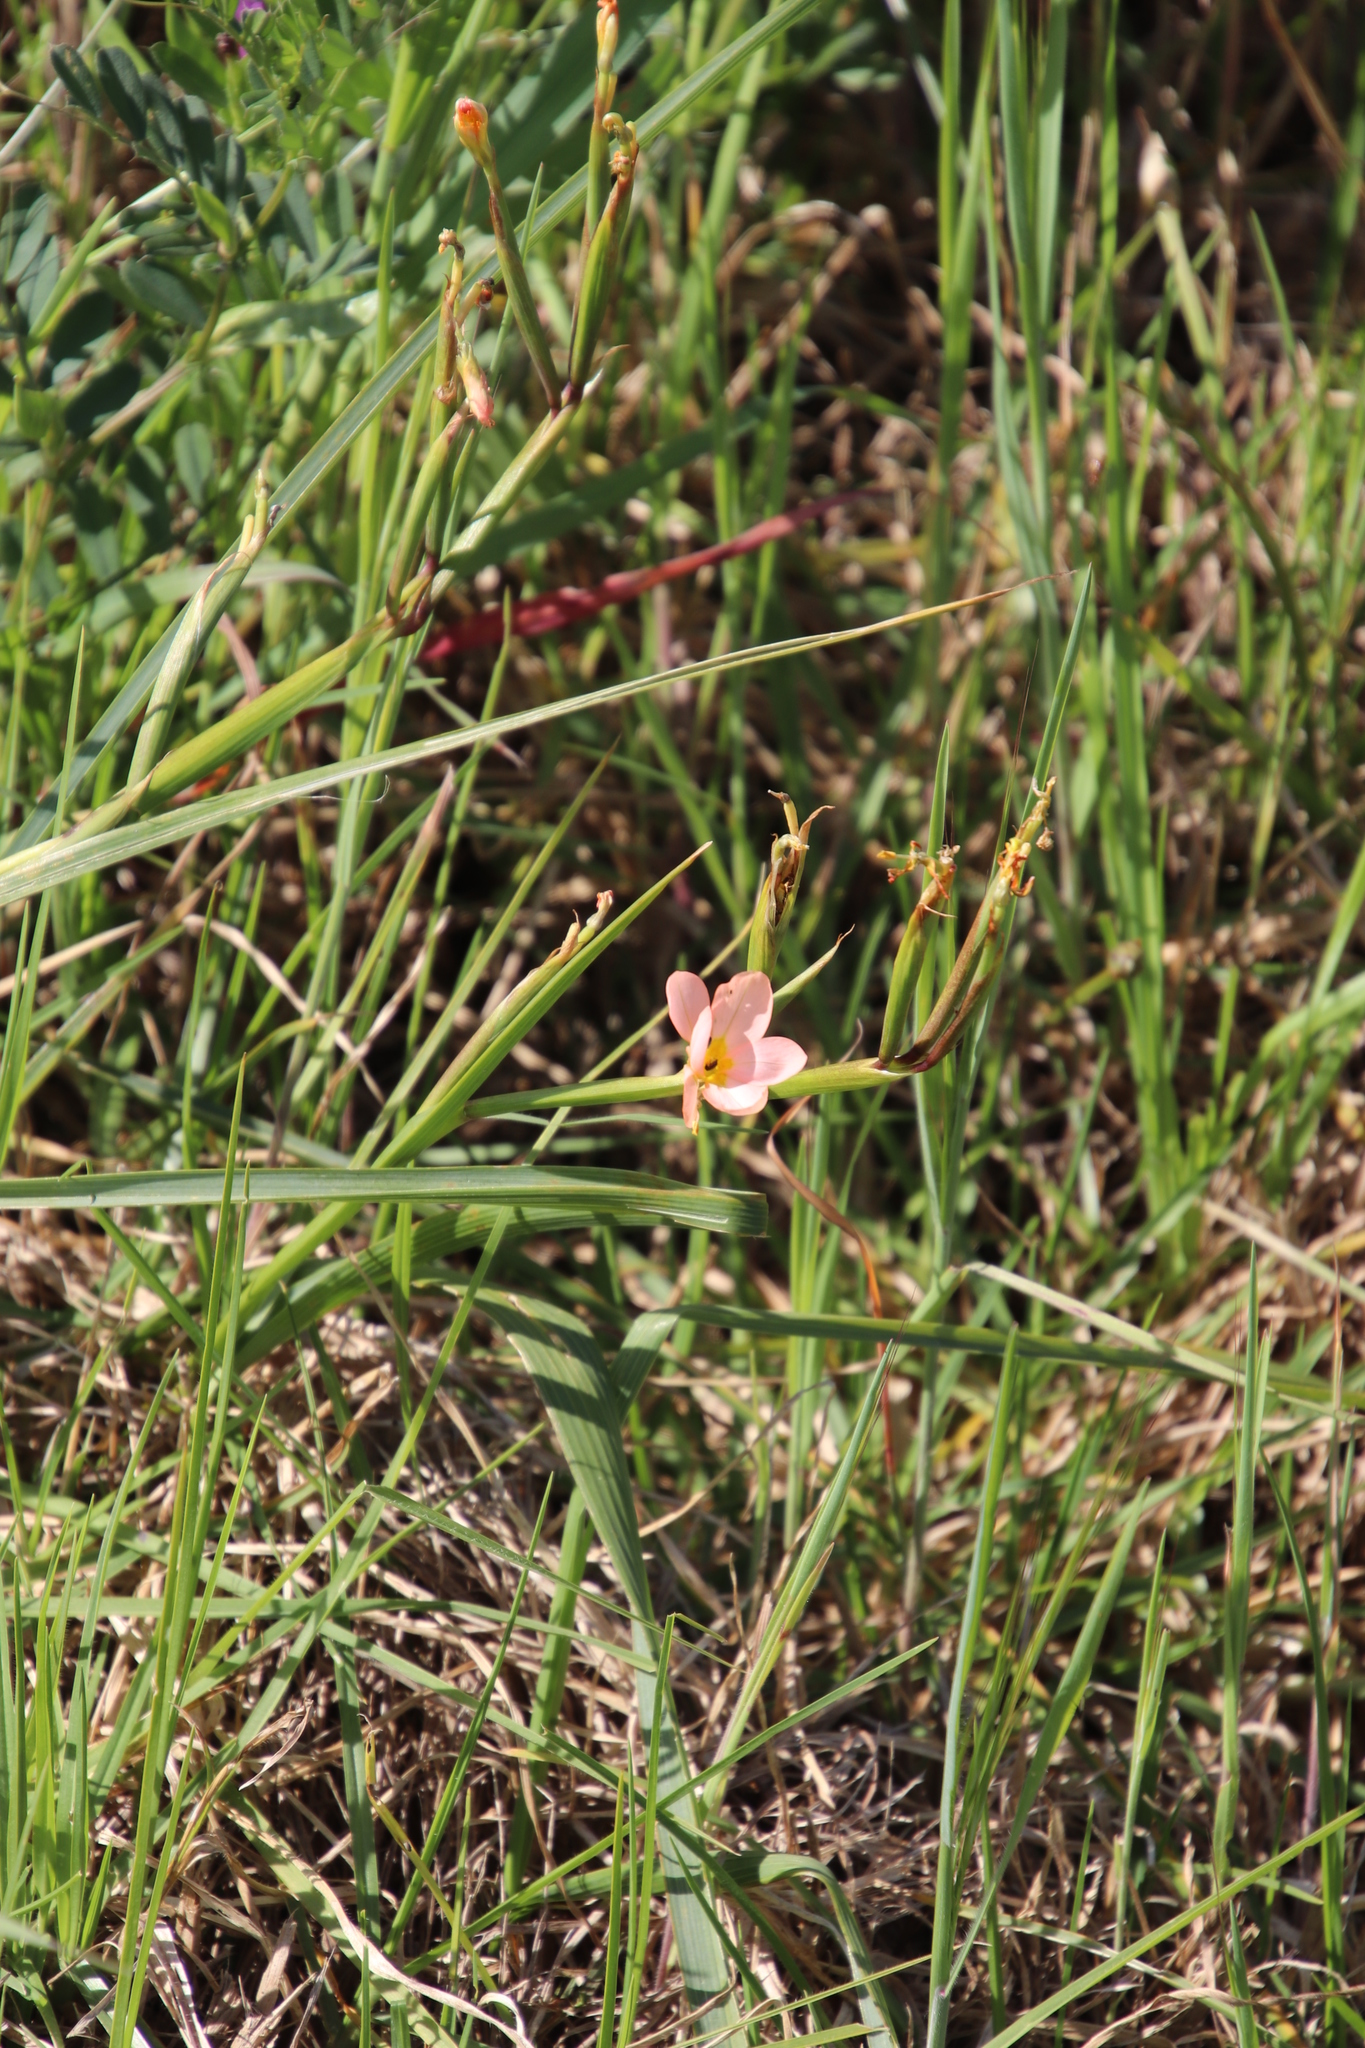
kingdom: Plantae
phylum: Tracheophyta
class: Liliopsida
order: Asparagales
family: Iridaceae
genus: Moraea
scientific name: Moraea miniata
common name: Two-leaf cape-tulip
